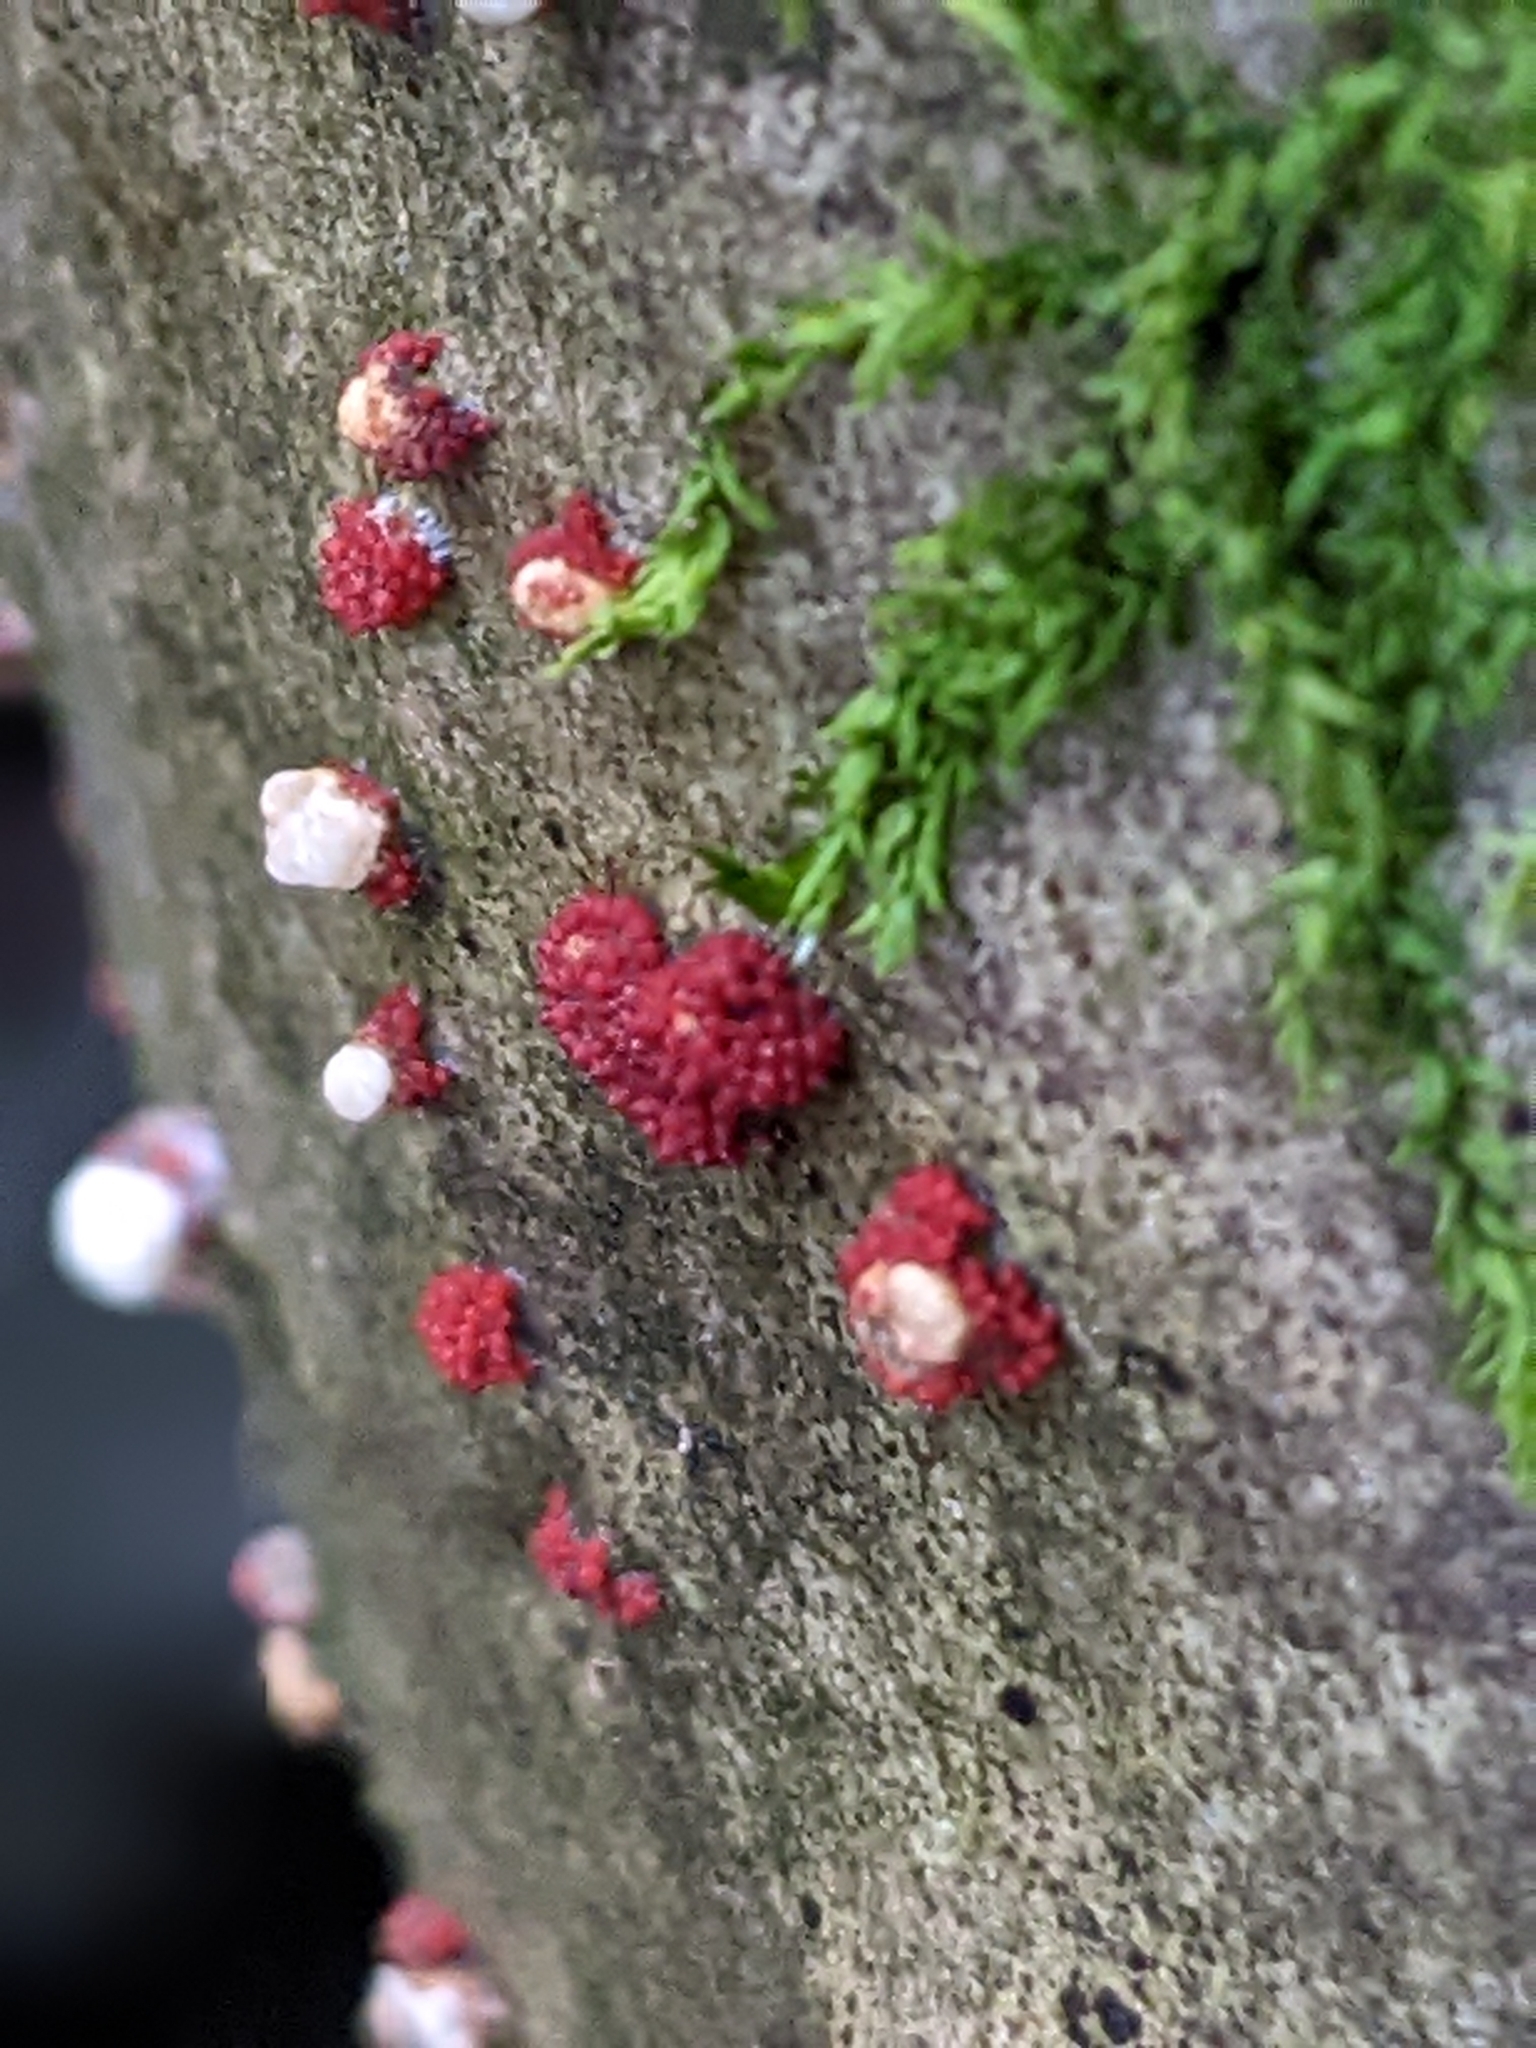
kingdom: Fungi
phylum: Ascomycota
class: Sordariomycetes
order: Hypocreales
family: Nectriaceae
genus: Neonectria
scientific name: Neonectria faginata
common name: Beech bark canker
